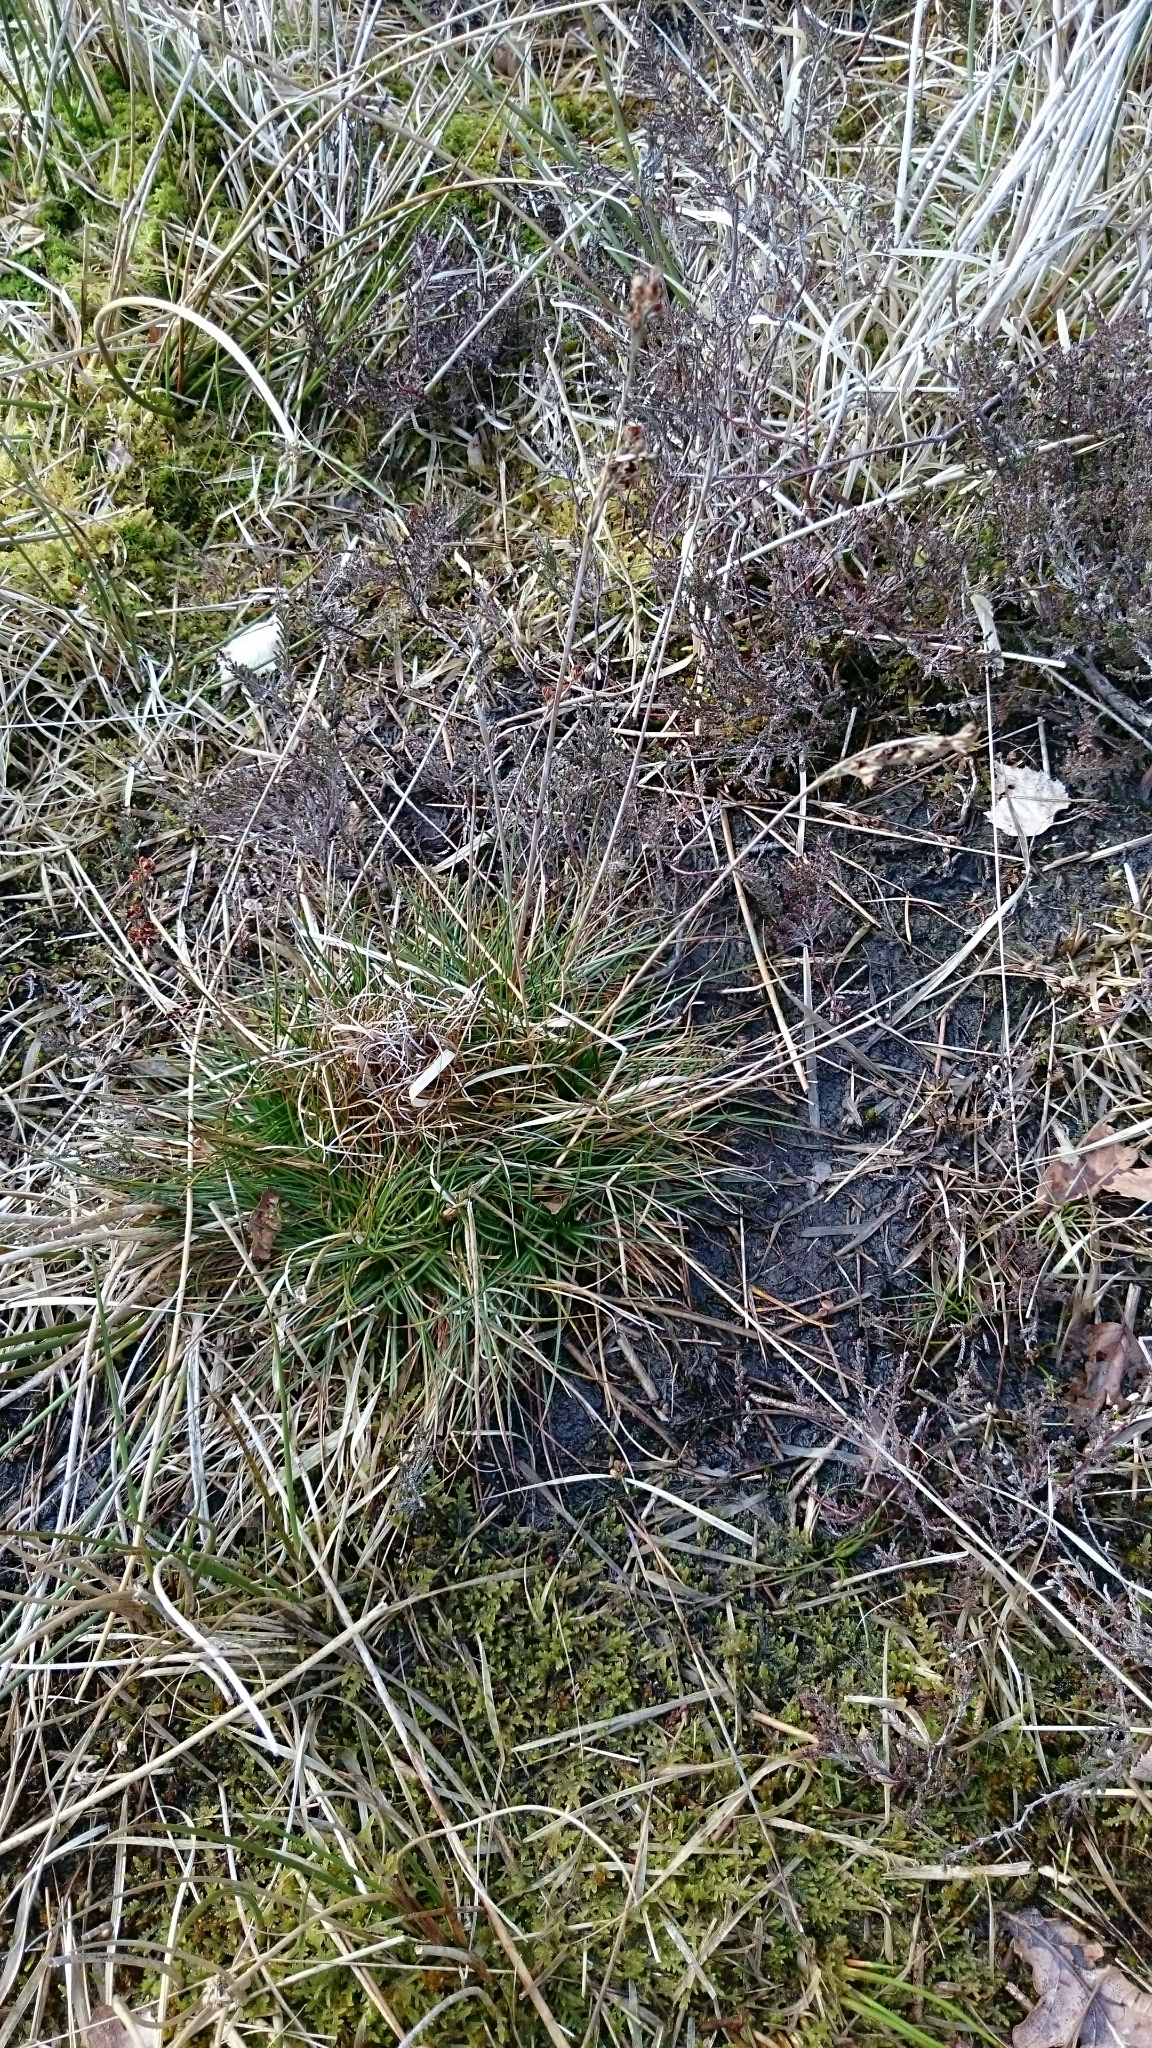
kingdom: Plantae
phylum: Tracheophyta
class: Liliopsida
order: Poales
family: Juncaceae
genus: Juncus
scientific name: Juncus squarrosus
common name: Heath rush
